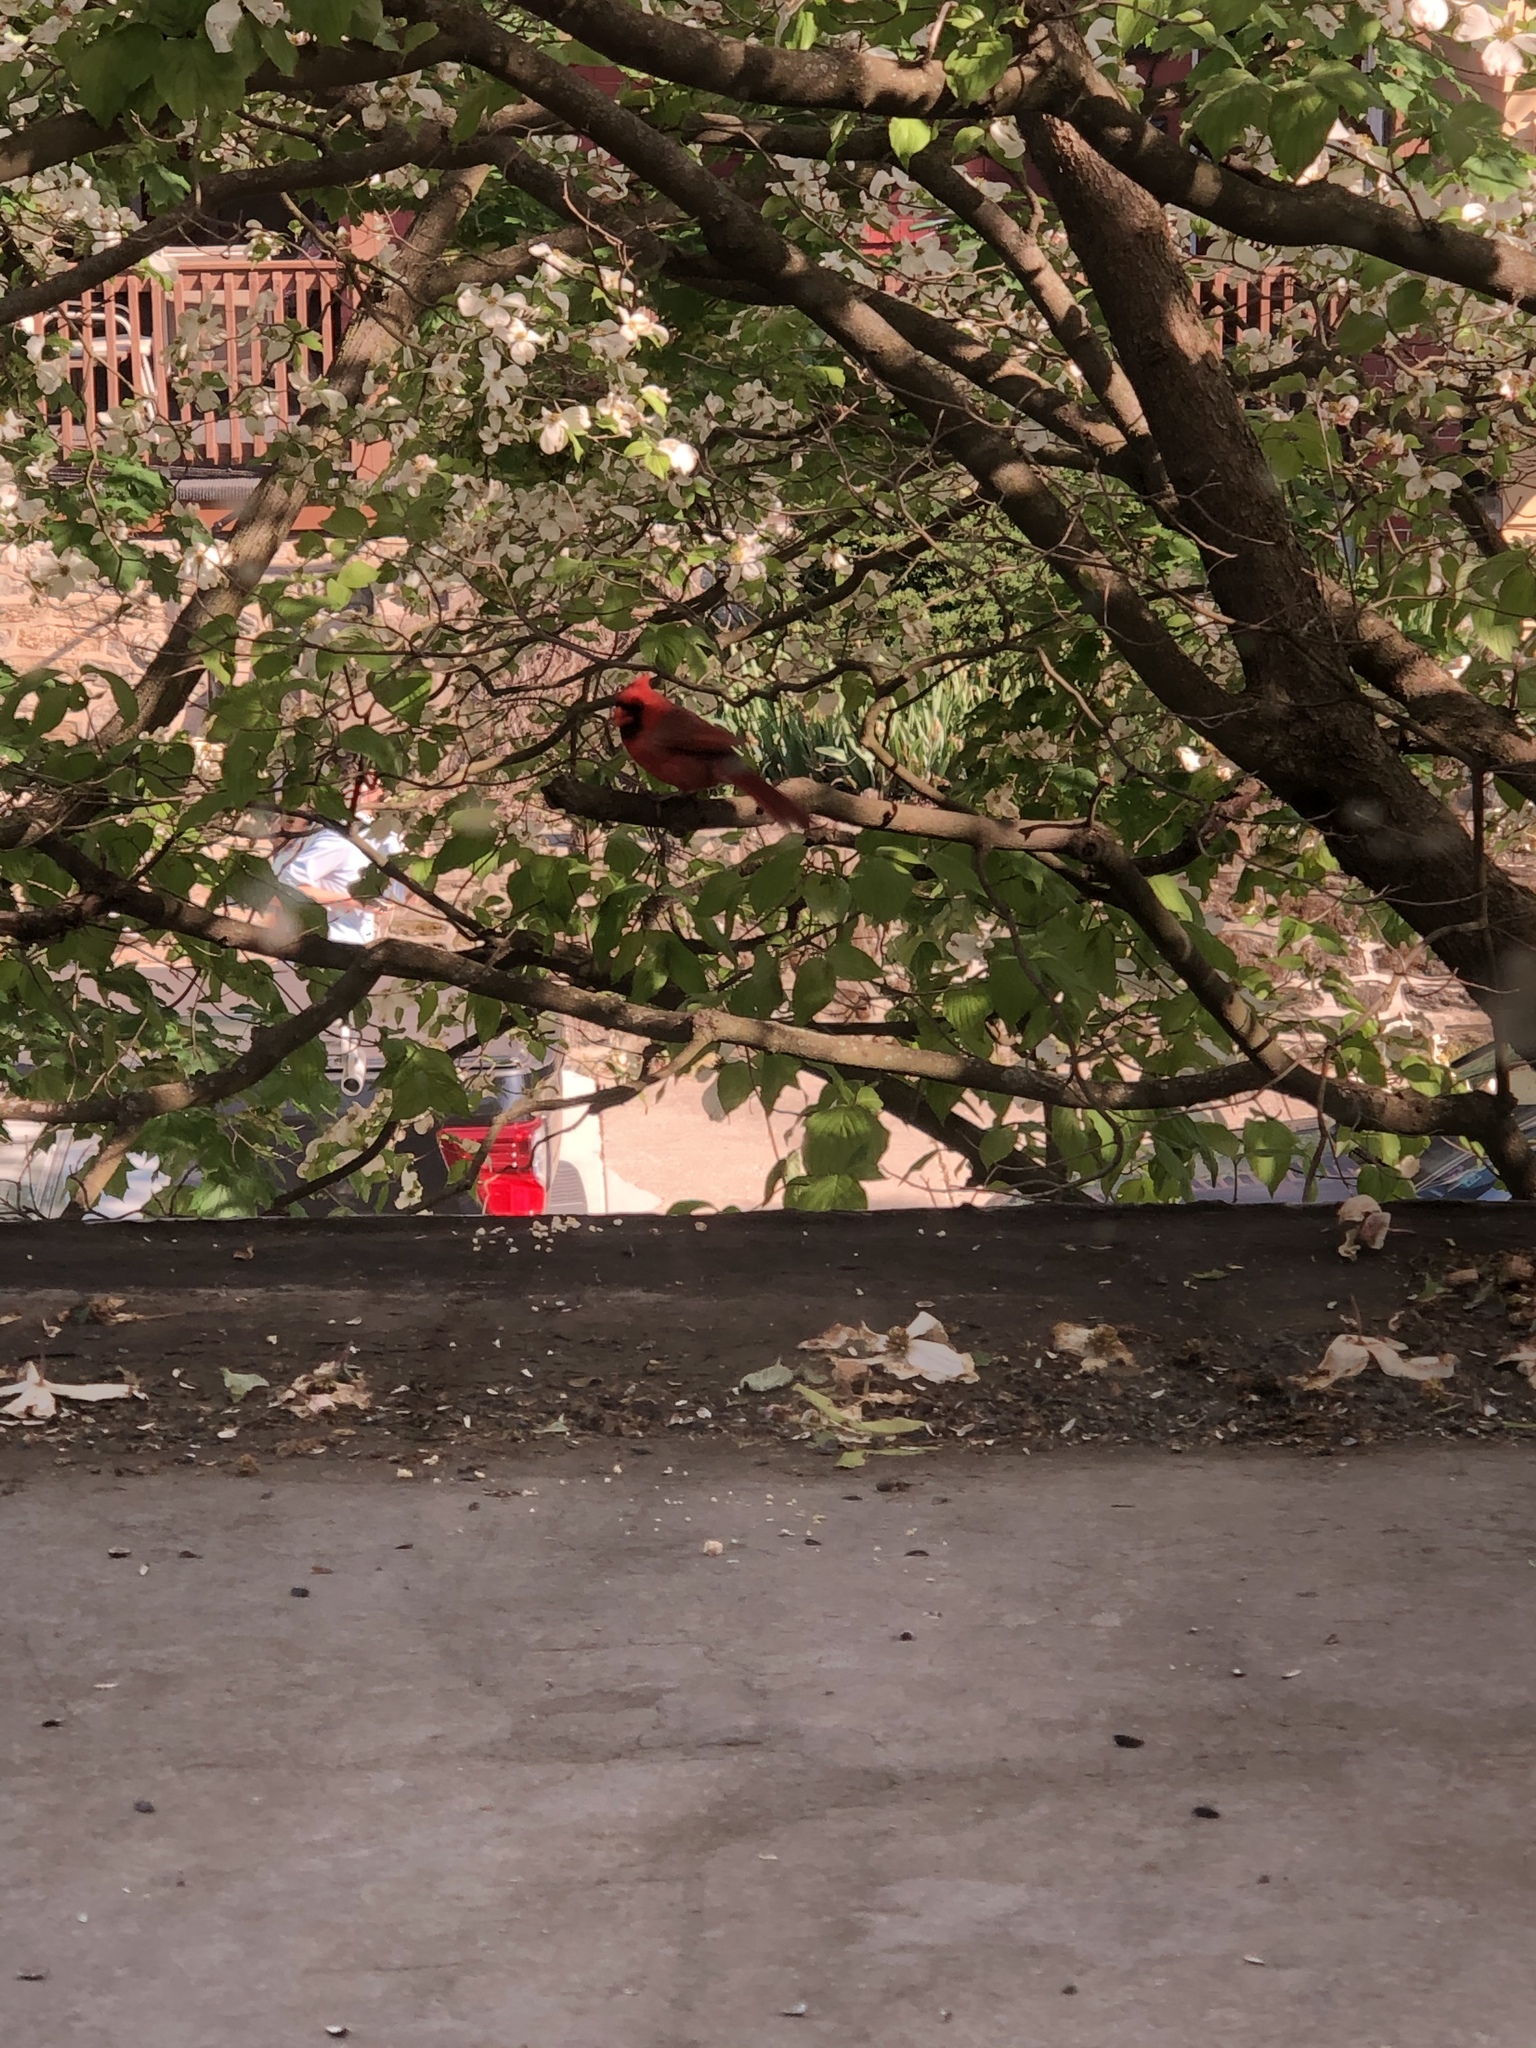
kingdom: Animalia
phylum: Chordata
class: Aves
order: Passeriformes
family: Cardinalidae
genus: Cardinalis
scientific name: Cardinalis cardinalis
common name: Northern cardinal
